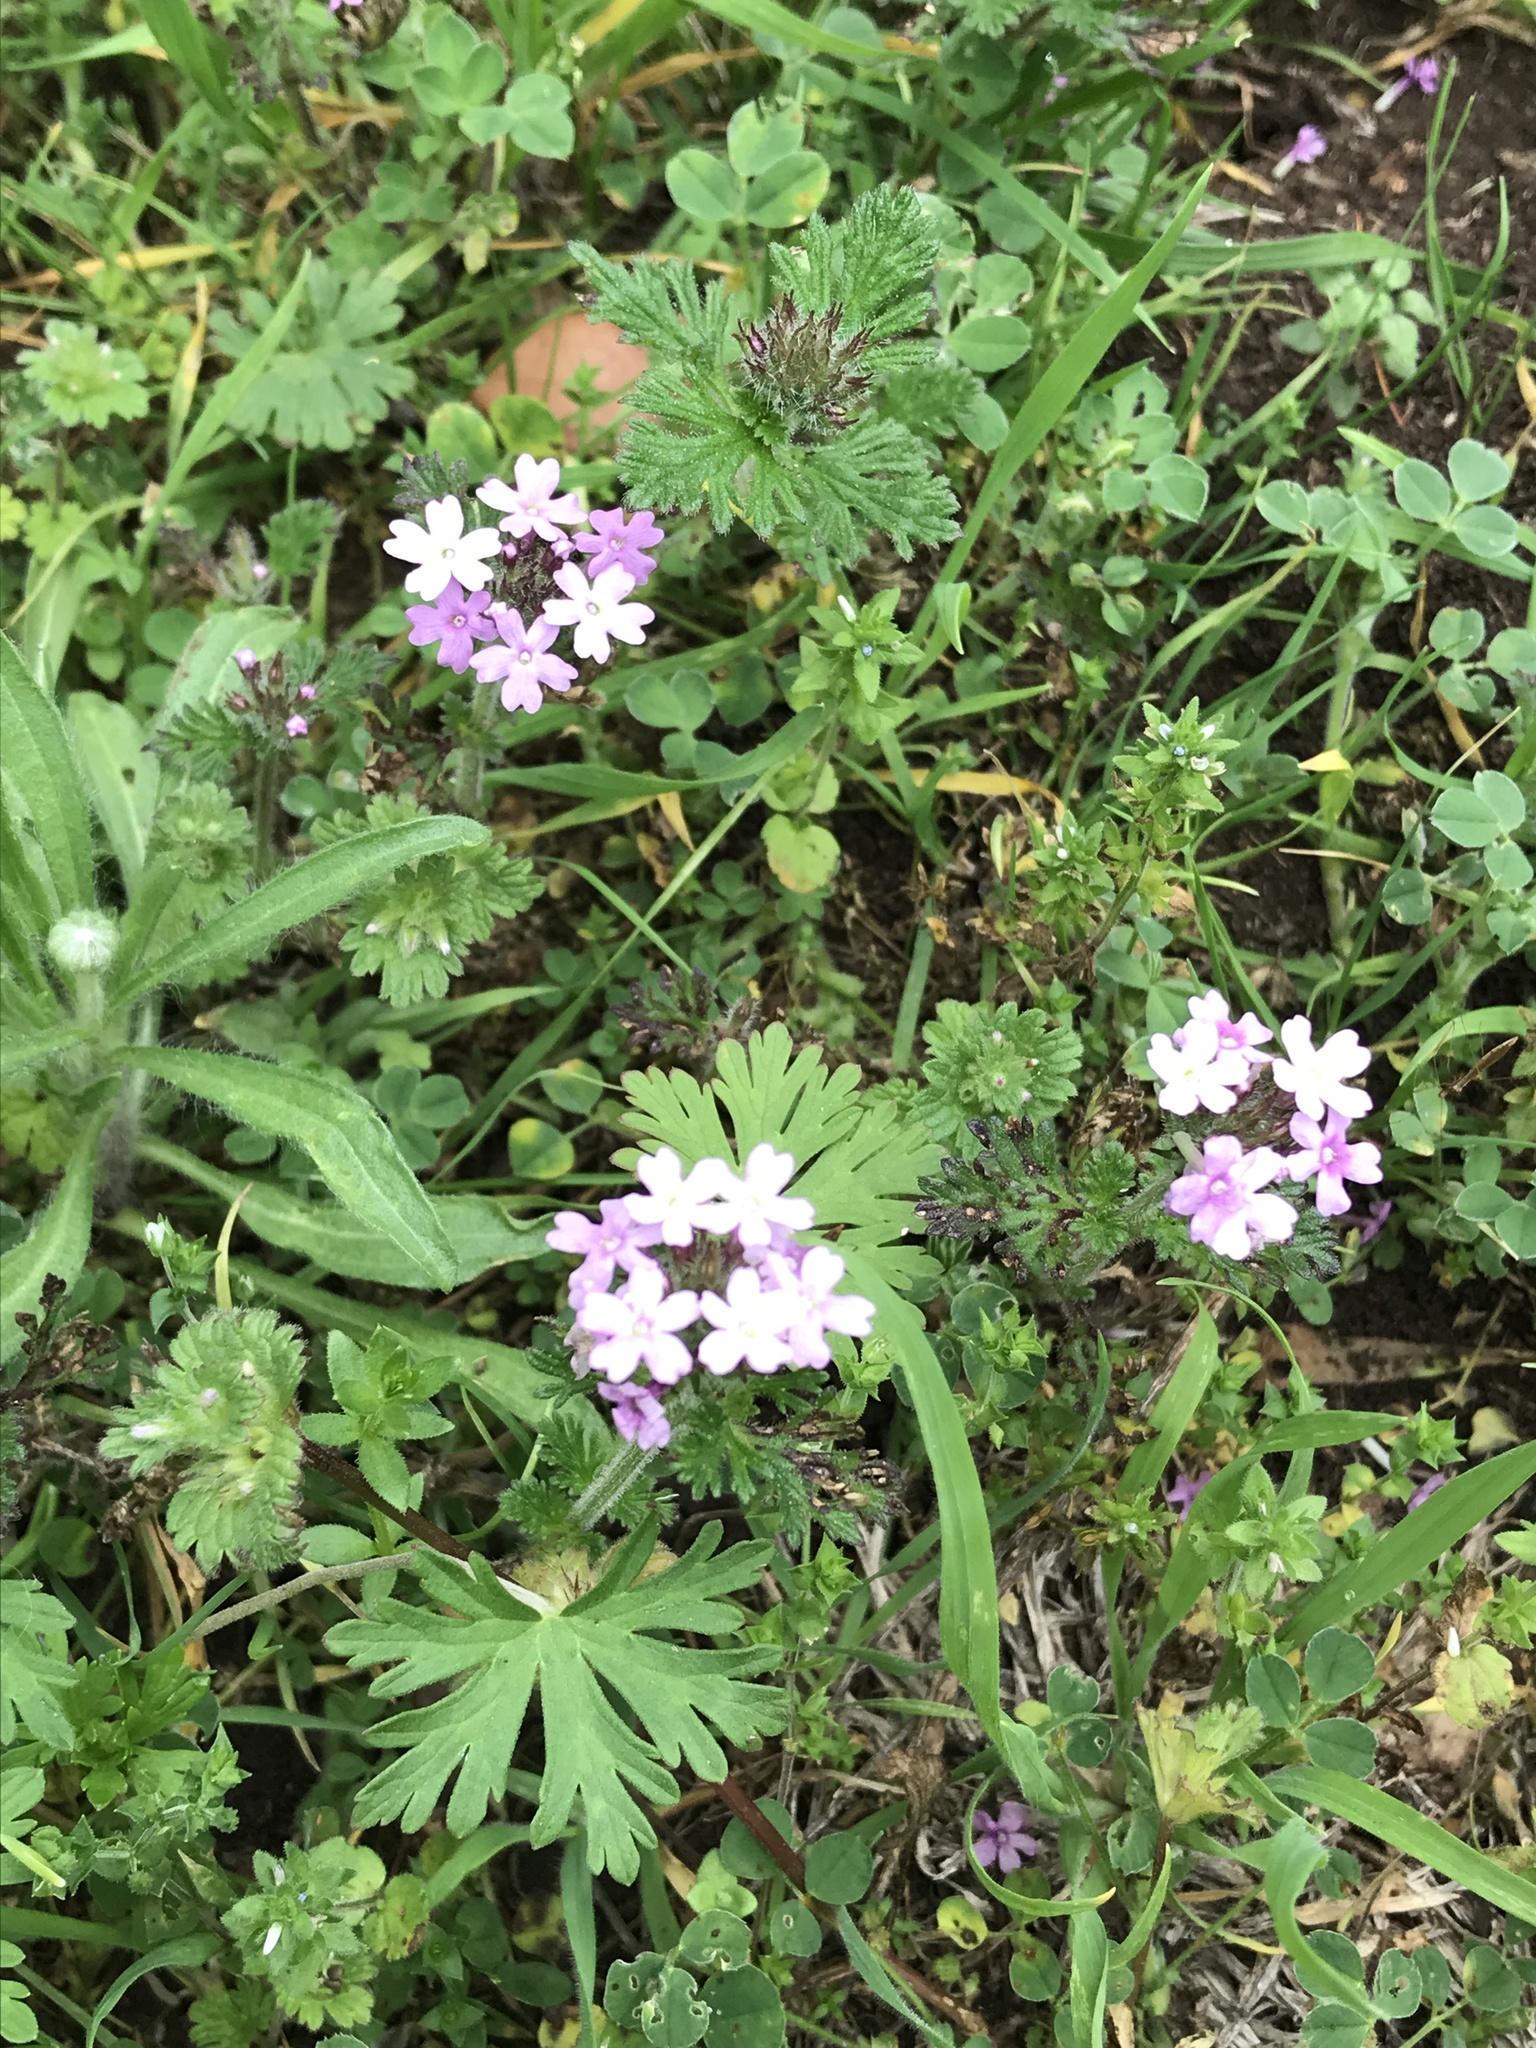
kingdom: Plantae
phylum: Tracheophyta
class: Magnoliopsida
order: Lamiales
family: Verbenaceae
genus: Verbena
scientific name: Verbena pumila
